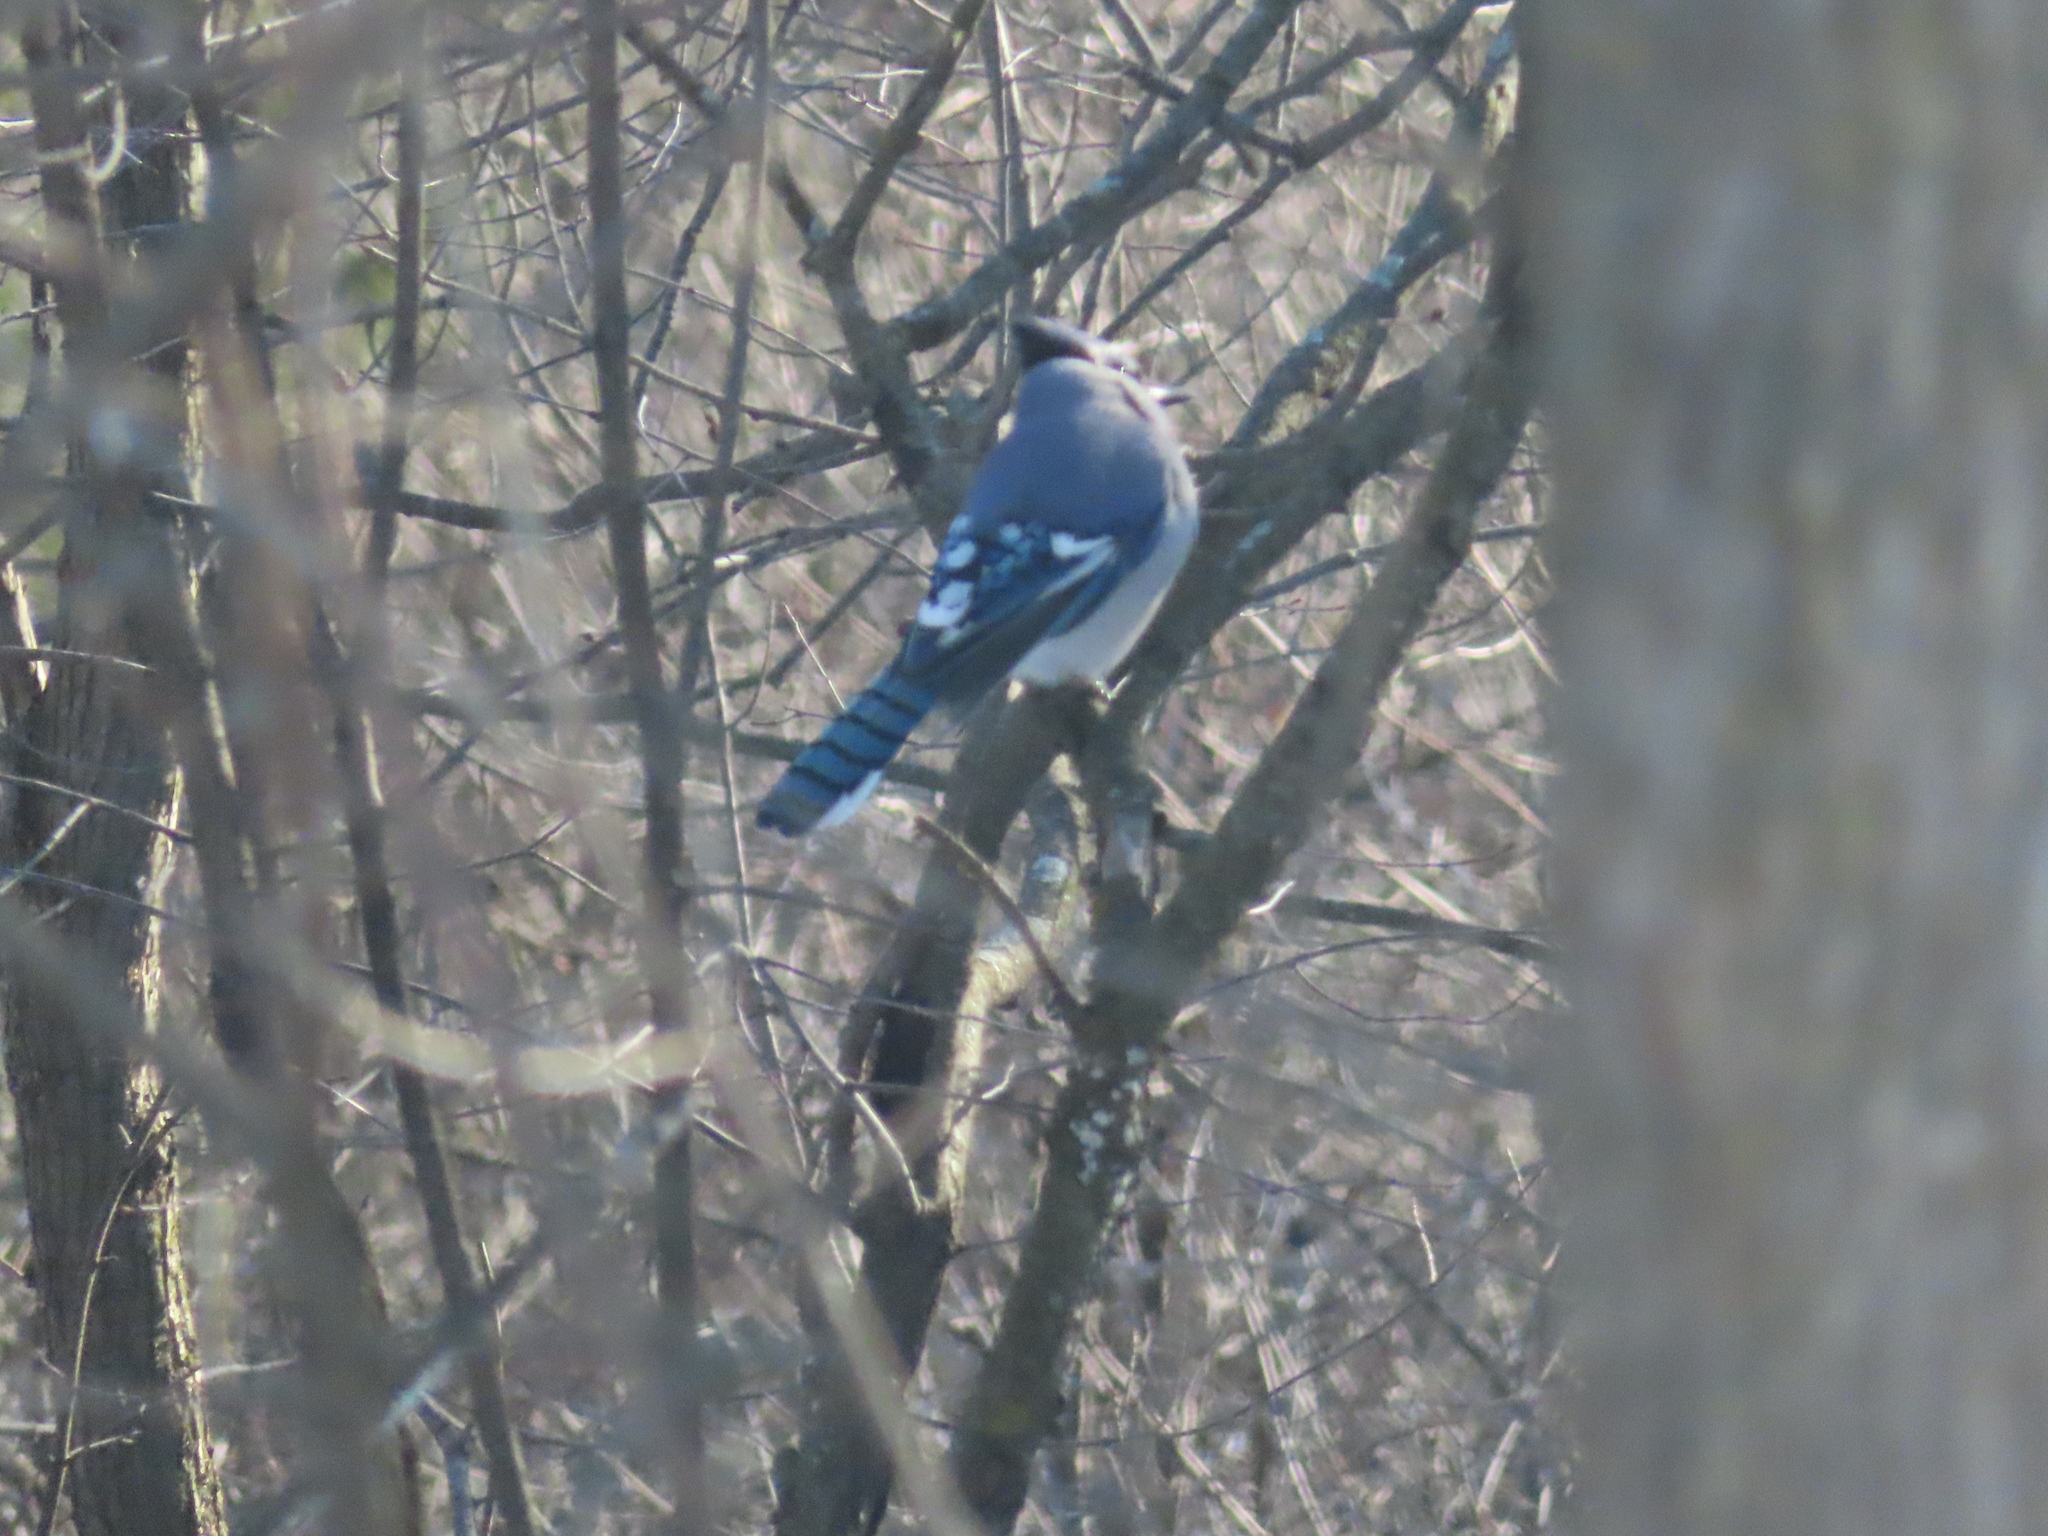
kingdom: Animalia
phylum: Chordata
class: Aves
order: Passeriformes
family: Corvidae
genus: Cyanocitta
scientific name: Cyanocitta cristata
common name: Blue jay
